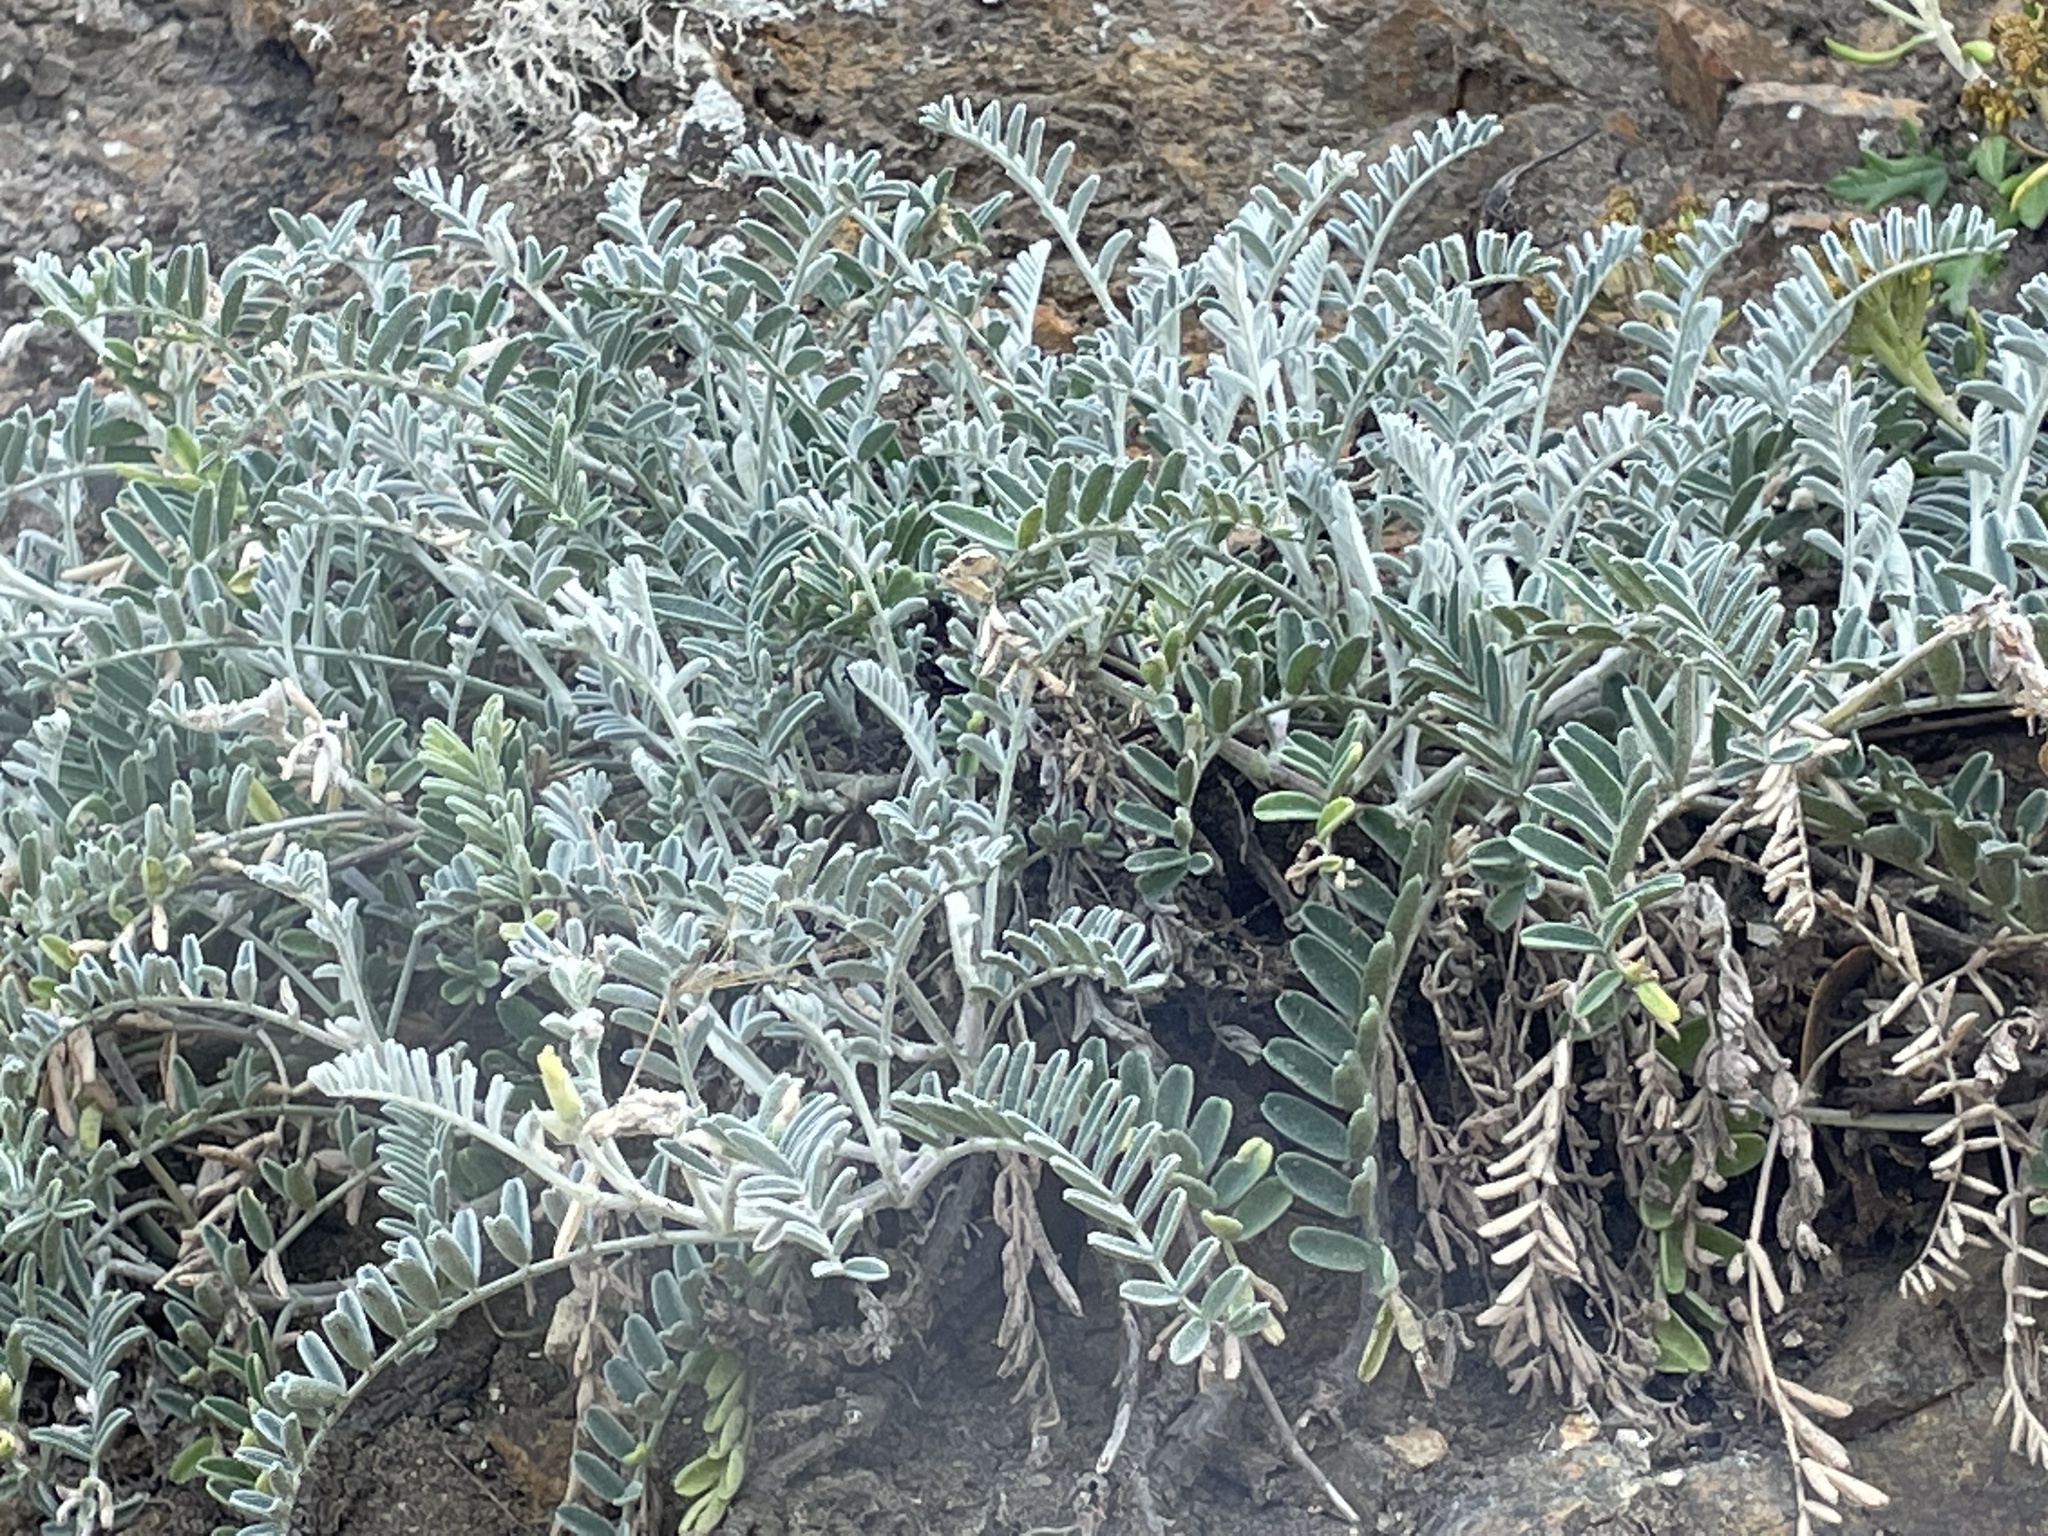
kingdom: Plantae
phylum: Tracheophyta
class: Magnoliopsida
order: Fabales
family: Fabaceae
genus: Astragalus
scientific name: Astragalus miguelensis
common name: San miguel milk-vetch
